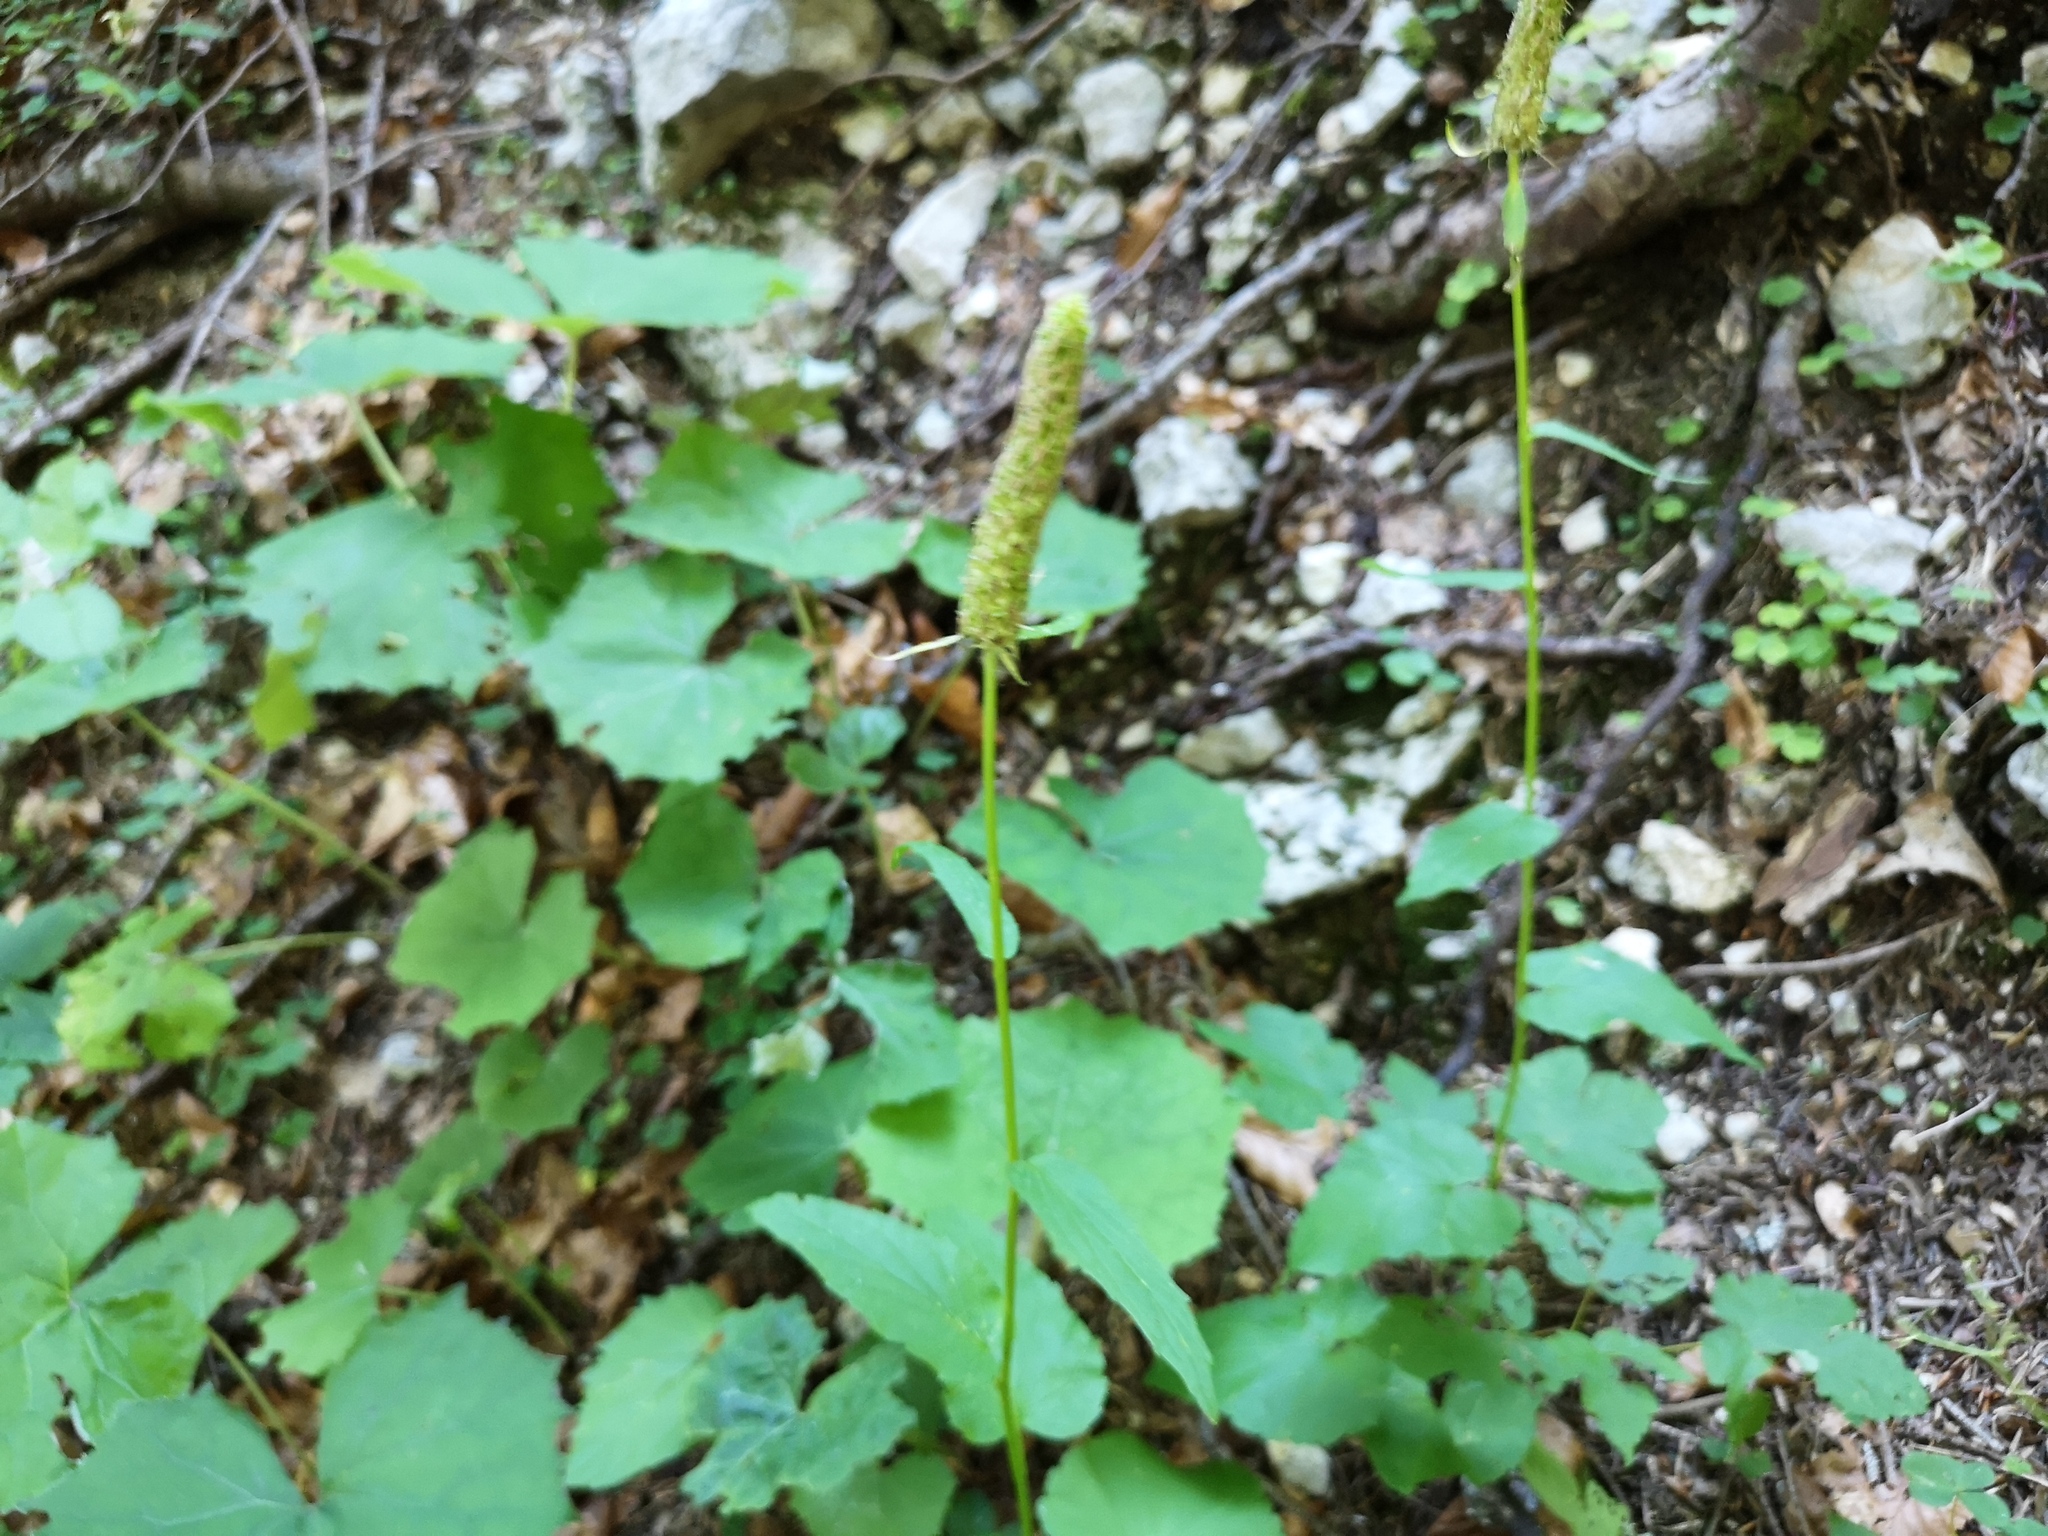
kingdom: Plantae
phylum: Tracheophyta
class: Magnoliopsida
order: Asterales
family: Campanulaceae
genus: Phyteuma
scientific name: Phyteuma spicatum
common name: Spiked rampion
